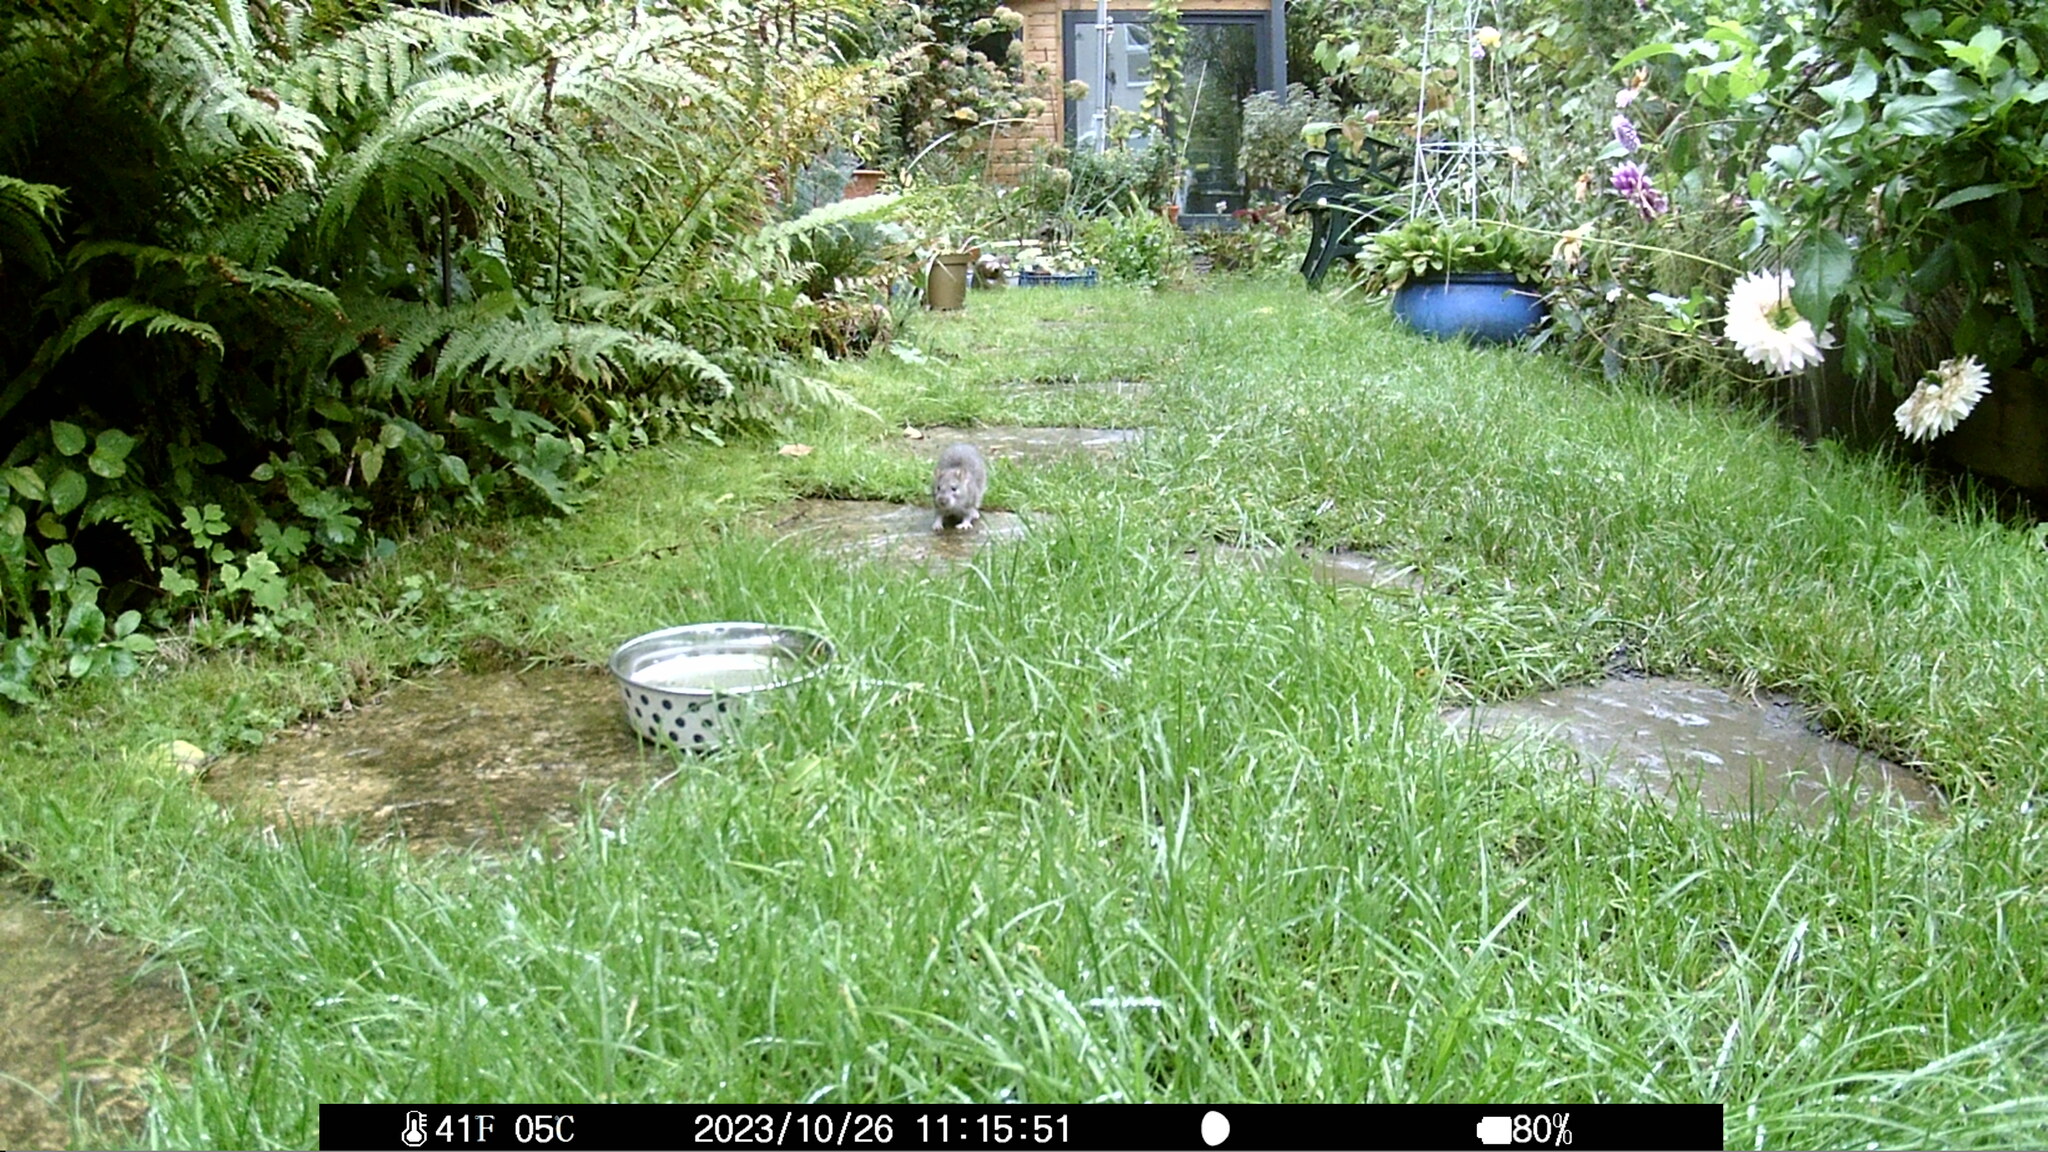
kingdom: Animalia
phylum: Chordata
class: Mammalia
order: Rodentia
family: Muridae
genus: Rattus
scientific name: Rattus norvegicus
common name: Brown rat
